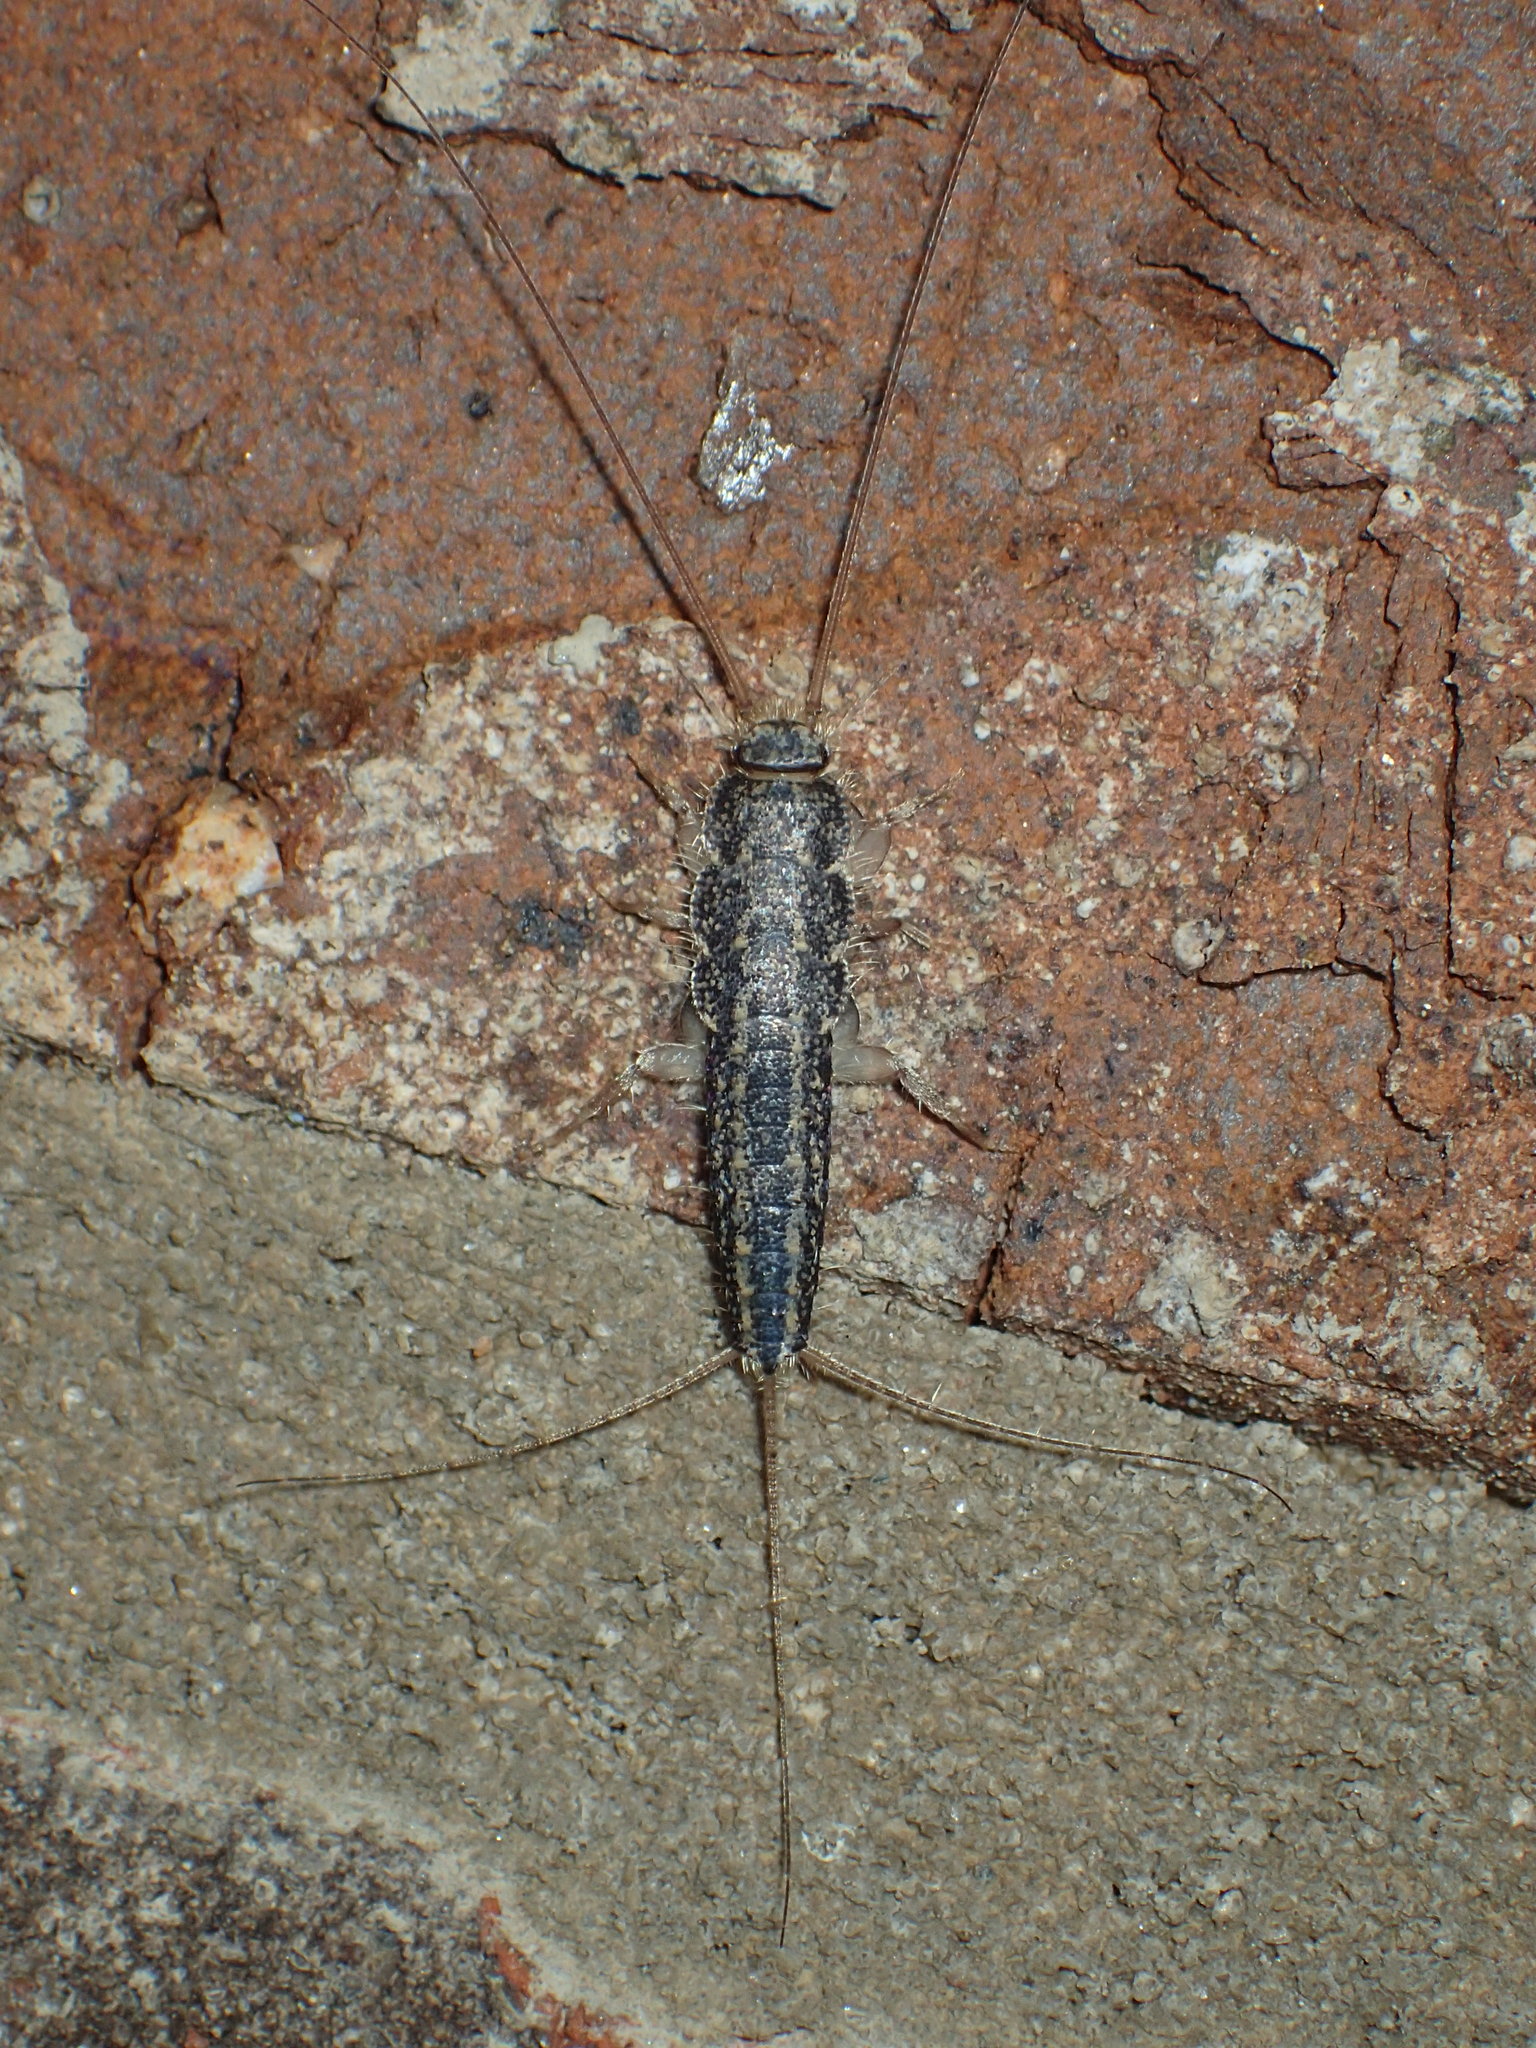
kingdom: Animalia
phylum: Arthropoda
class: Insecta
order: Zygentoma
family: Lepismatidae
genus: Ctenolepisma
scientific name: Ctenolepisma lineata
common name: Four-lined silverfish
